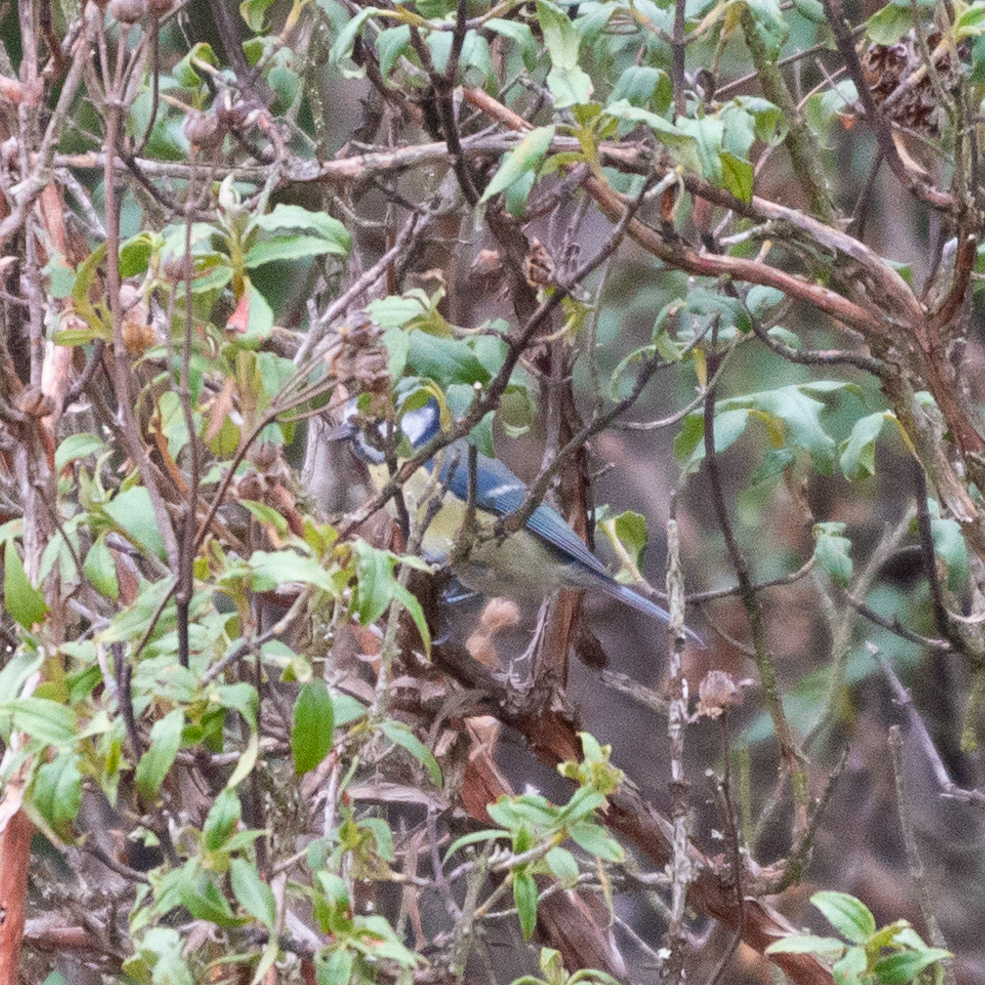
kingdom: Animalia
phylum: Chordata
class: Aves
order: Passeriformes
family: Paridae
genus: Cyanistes
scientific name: Cyanistes caeruleus
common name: Eurasian blue tit
